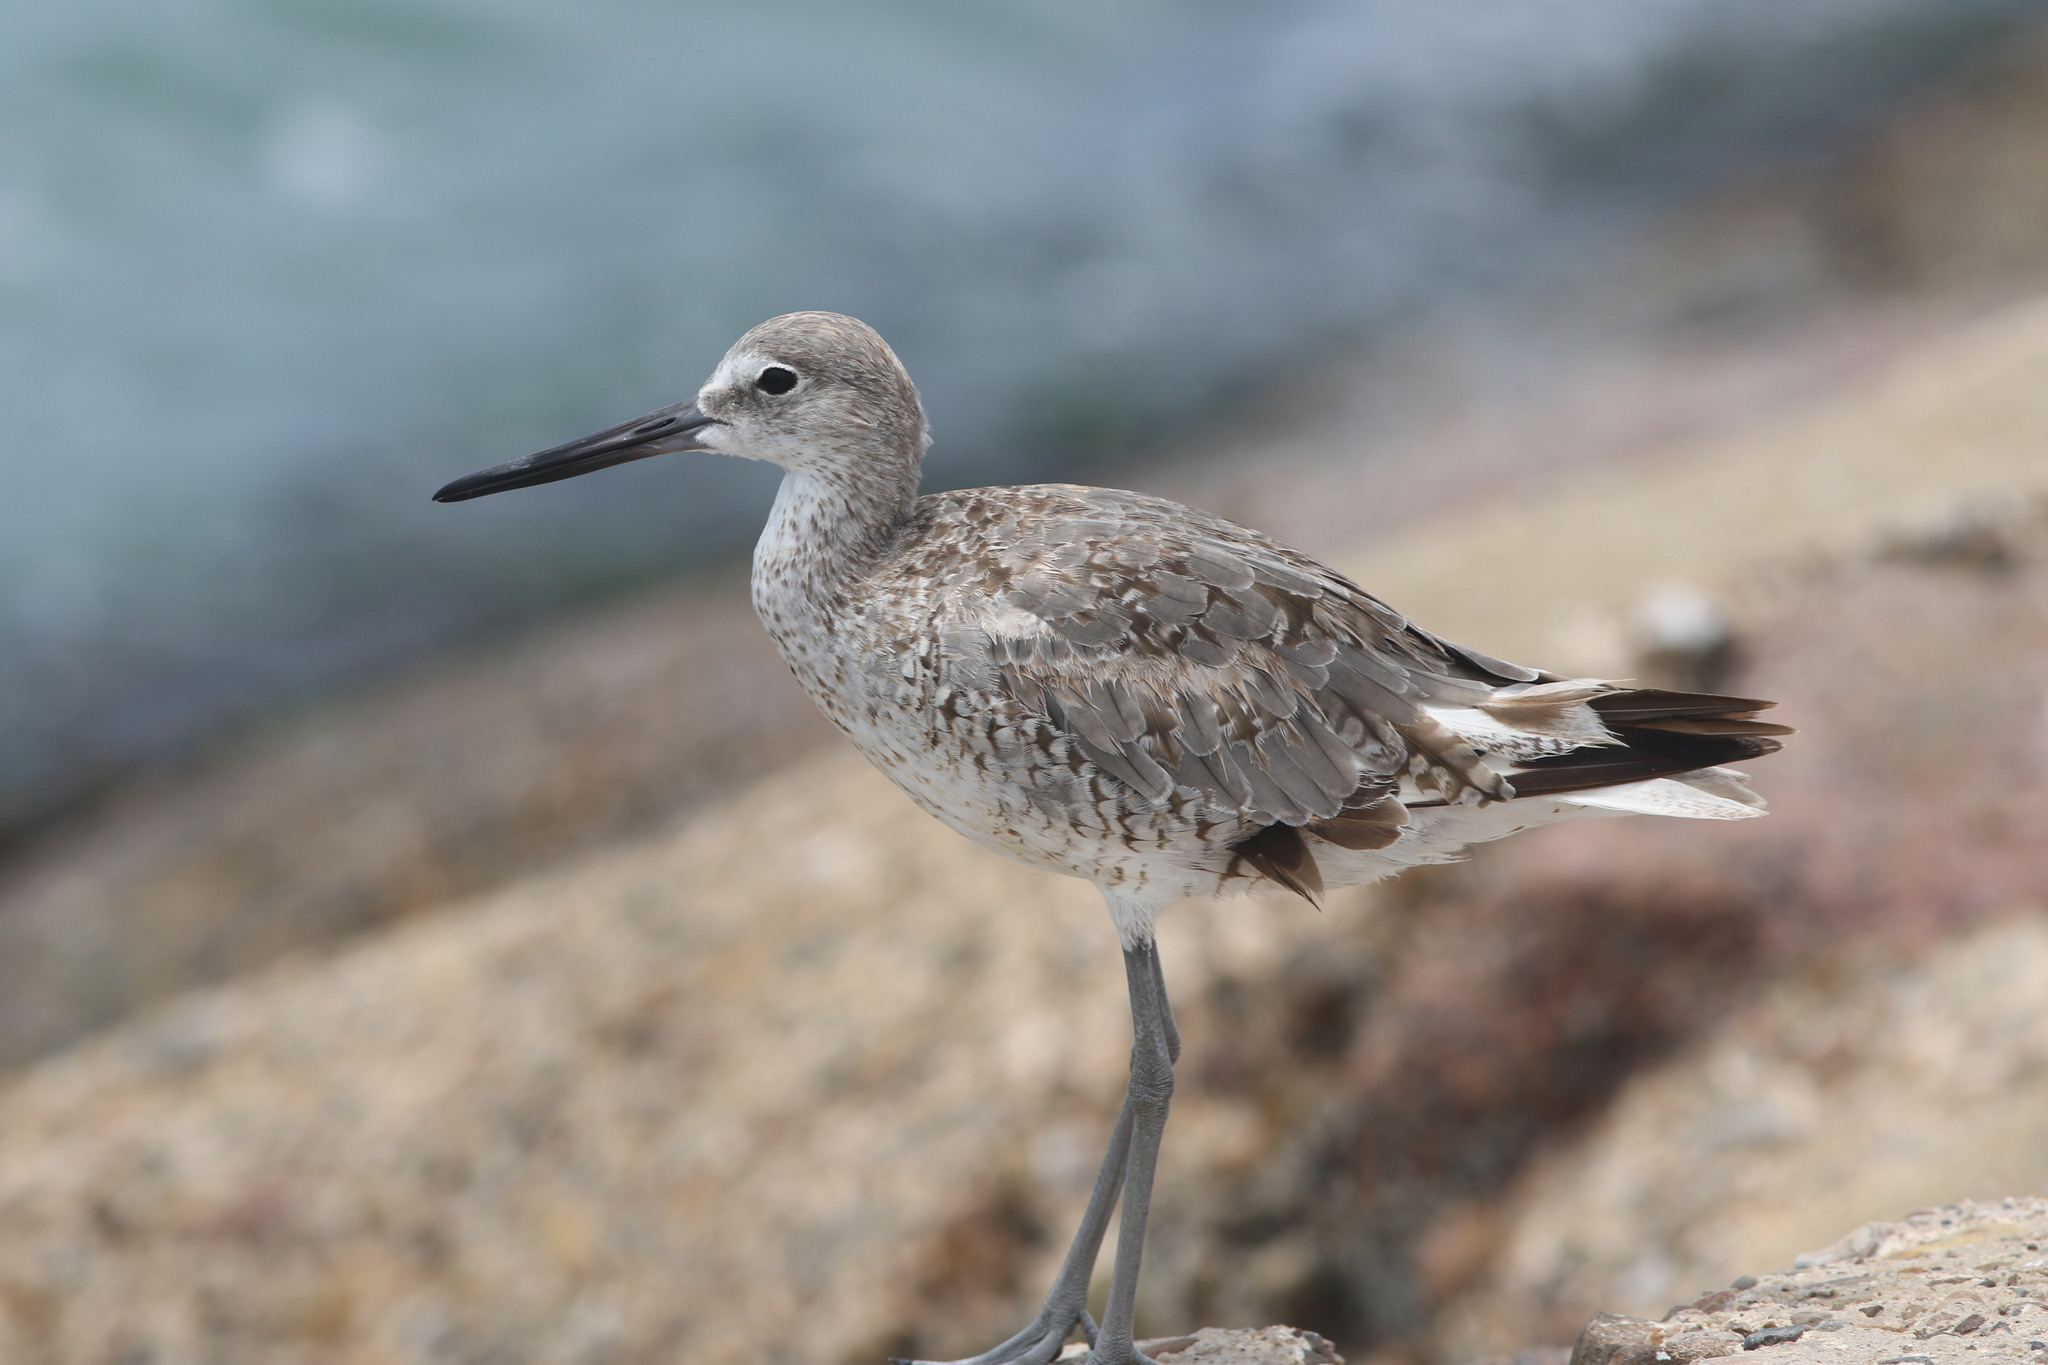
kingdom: Animalia
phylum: Chordata
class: Aves
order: Charadriiformes
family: Scolopacidae
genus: Tringa
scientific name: Tringa semipalmata
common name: Willet
